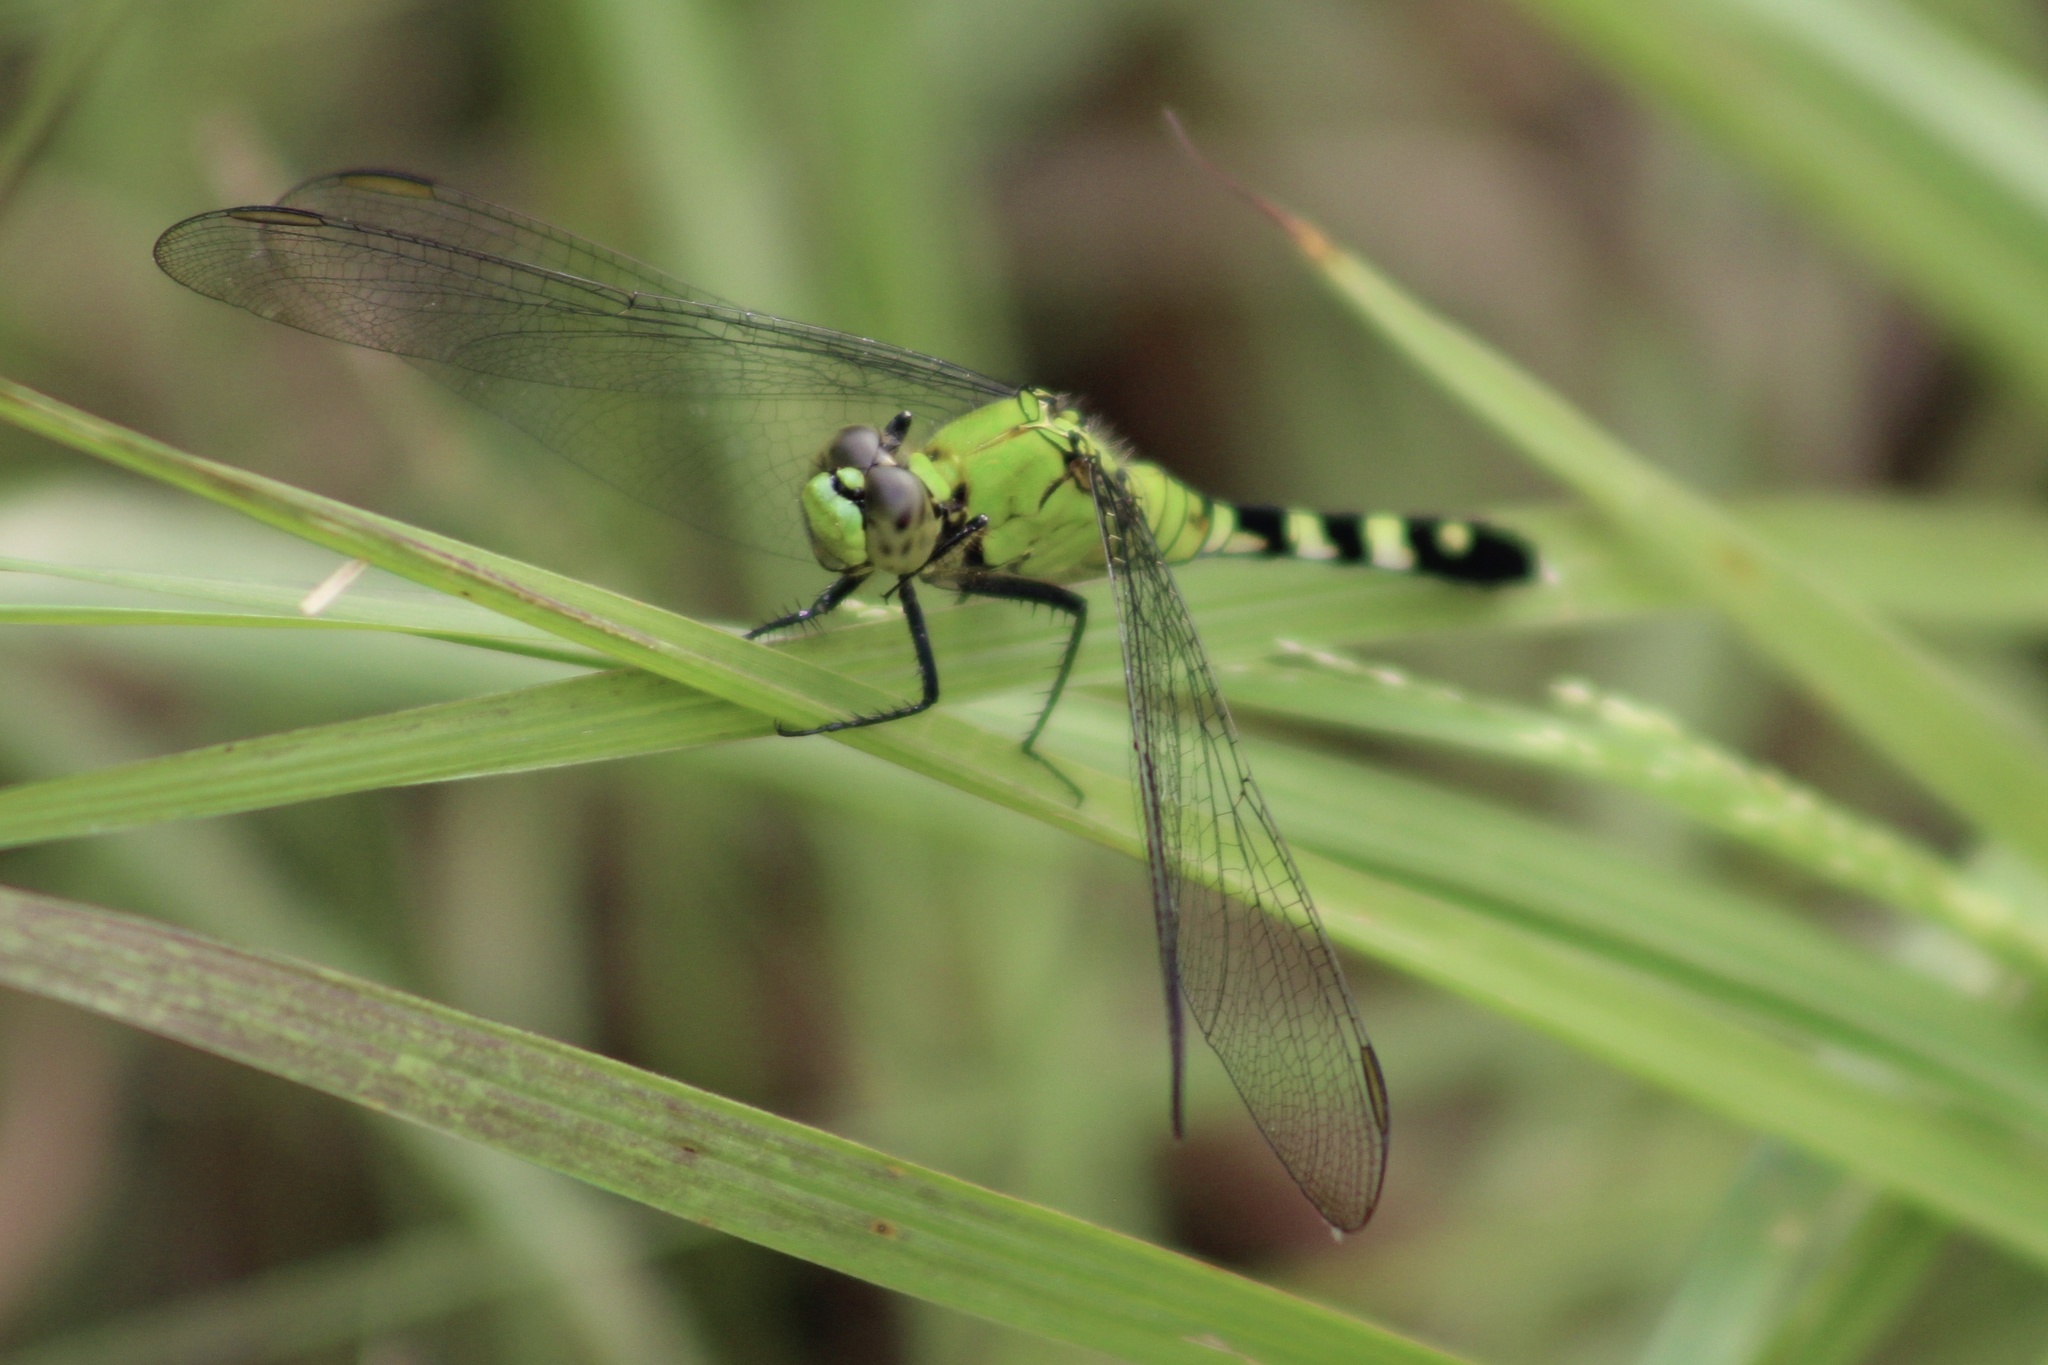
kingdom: Animalia
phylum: Arthropoda
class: Insecta
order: Odonata
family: Libellulidae
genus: Erythemis
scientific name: Erythemis simplicicollis
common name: Eastern pondhawk
